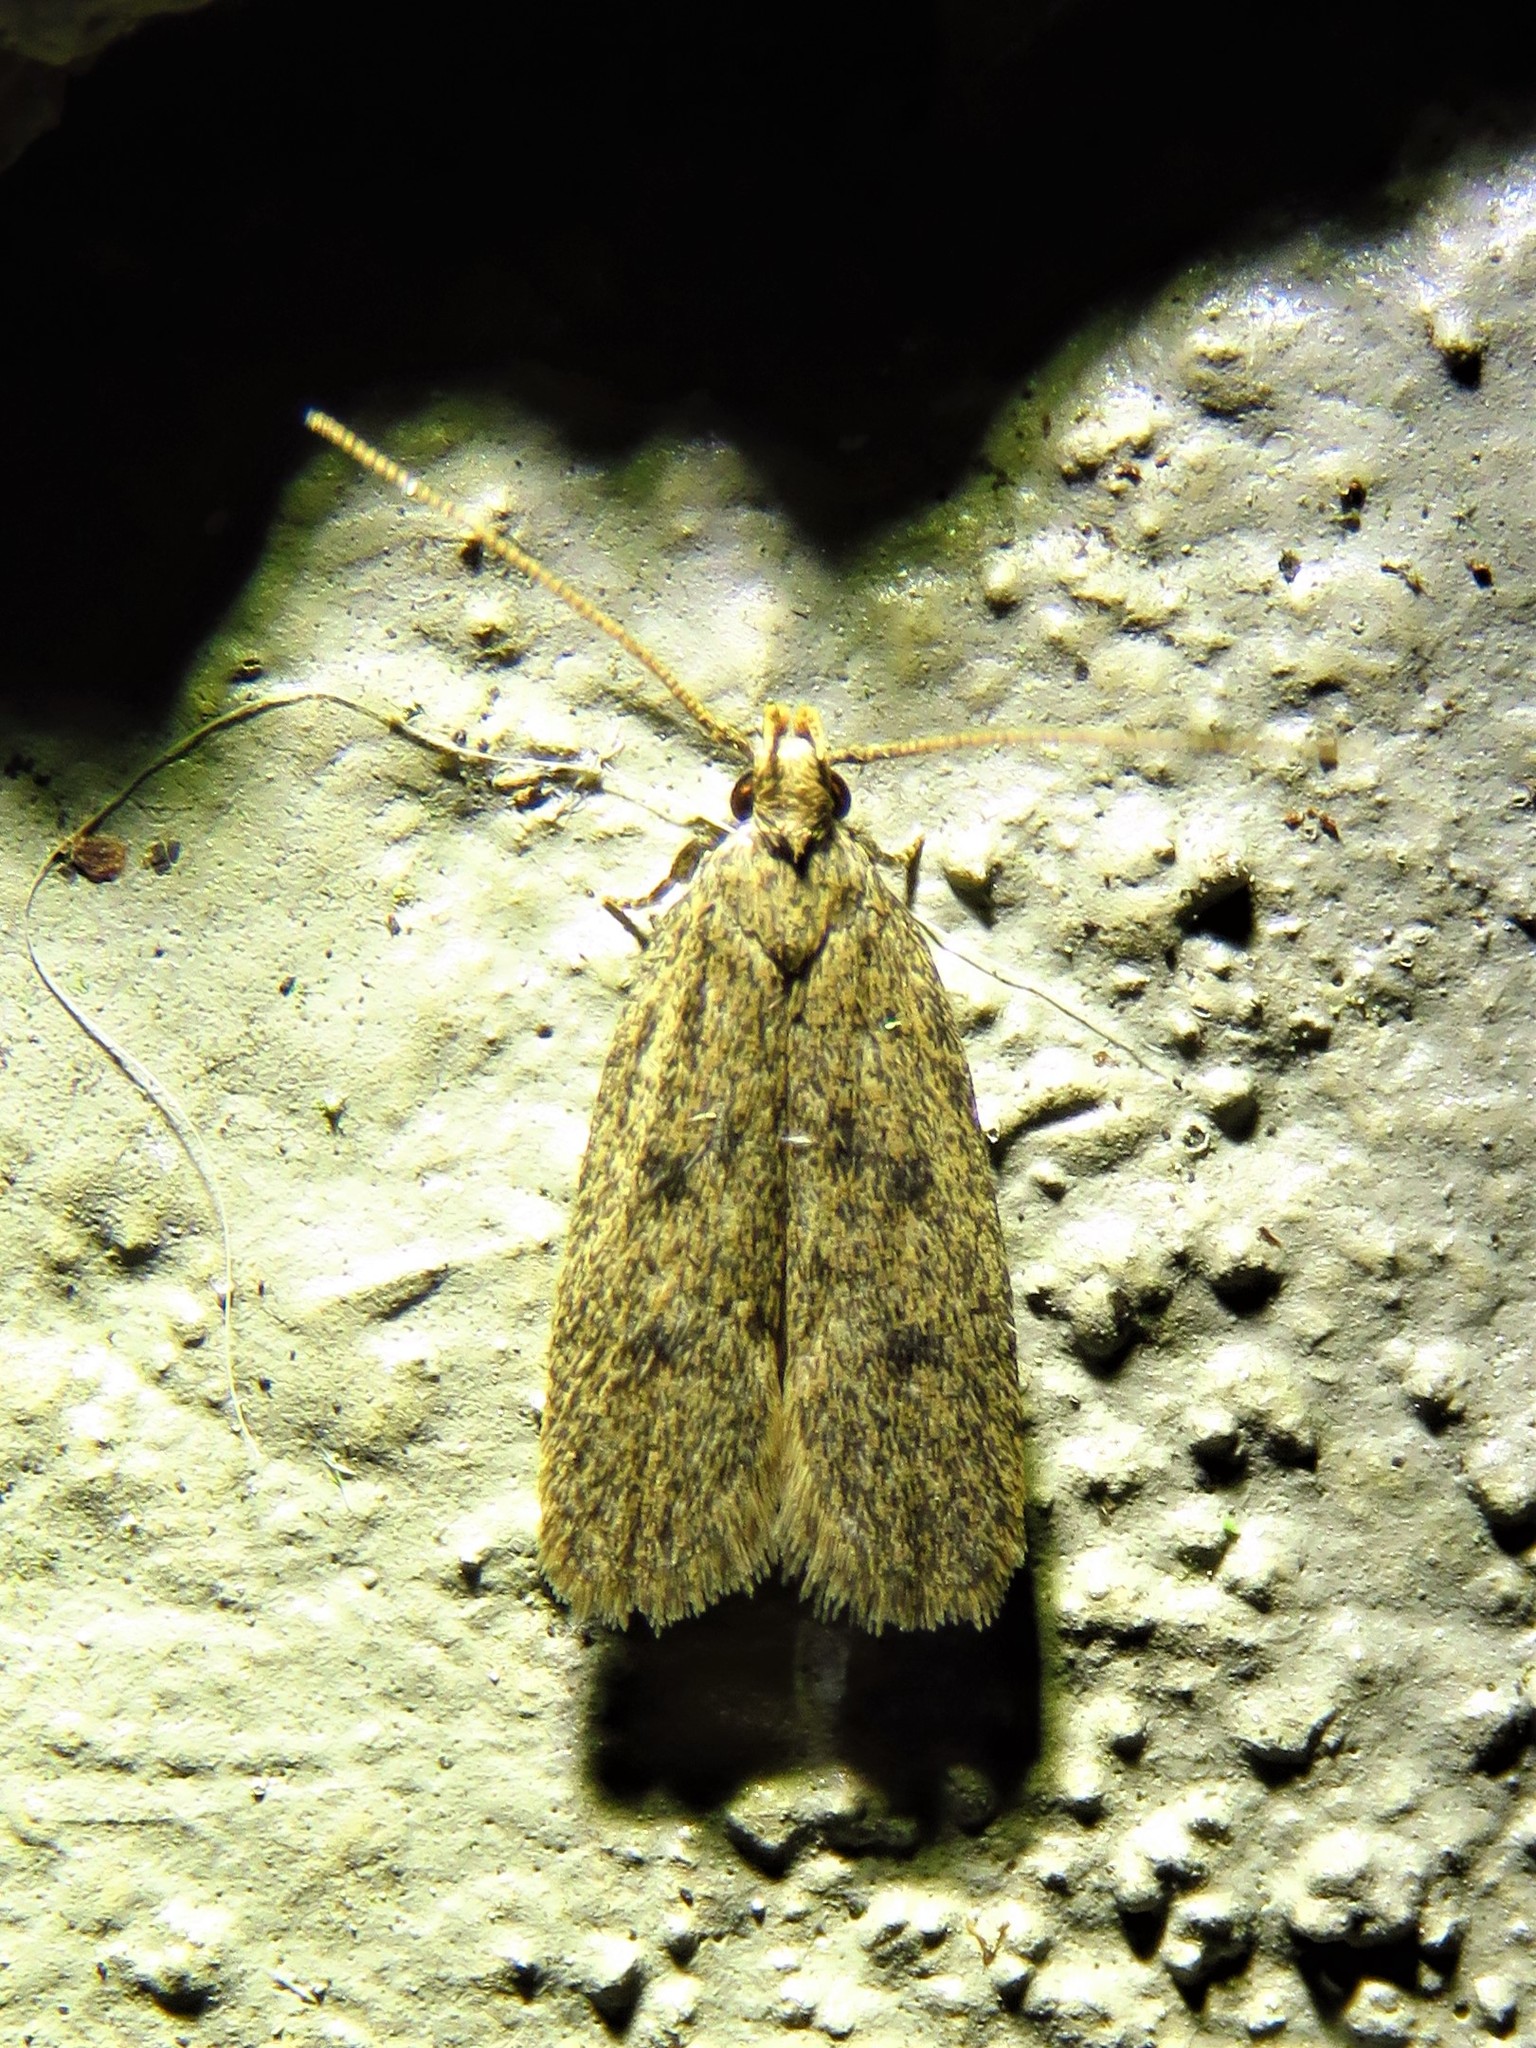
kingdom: Animalia
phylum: Arthropoda
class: Insecta
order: Lepidoptera
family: Autostichidae
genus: Glyphidocera
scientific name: Glyphidocera juniperella
